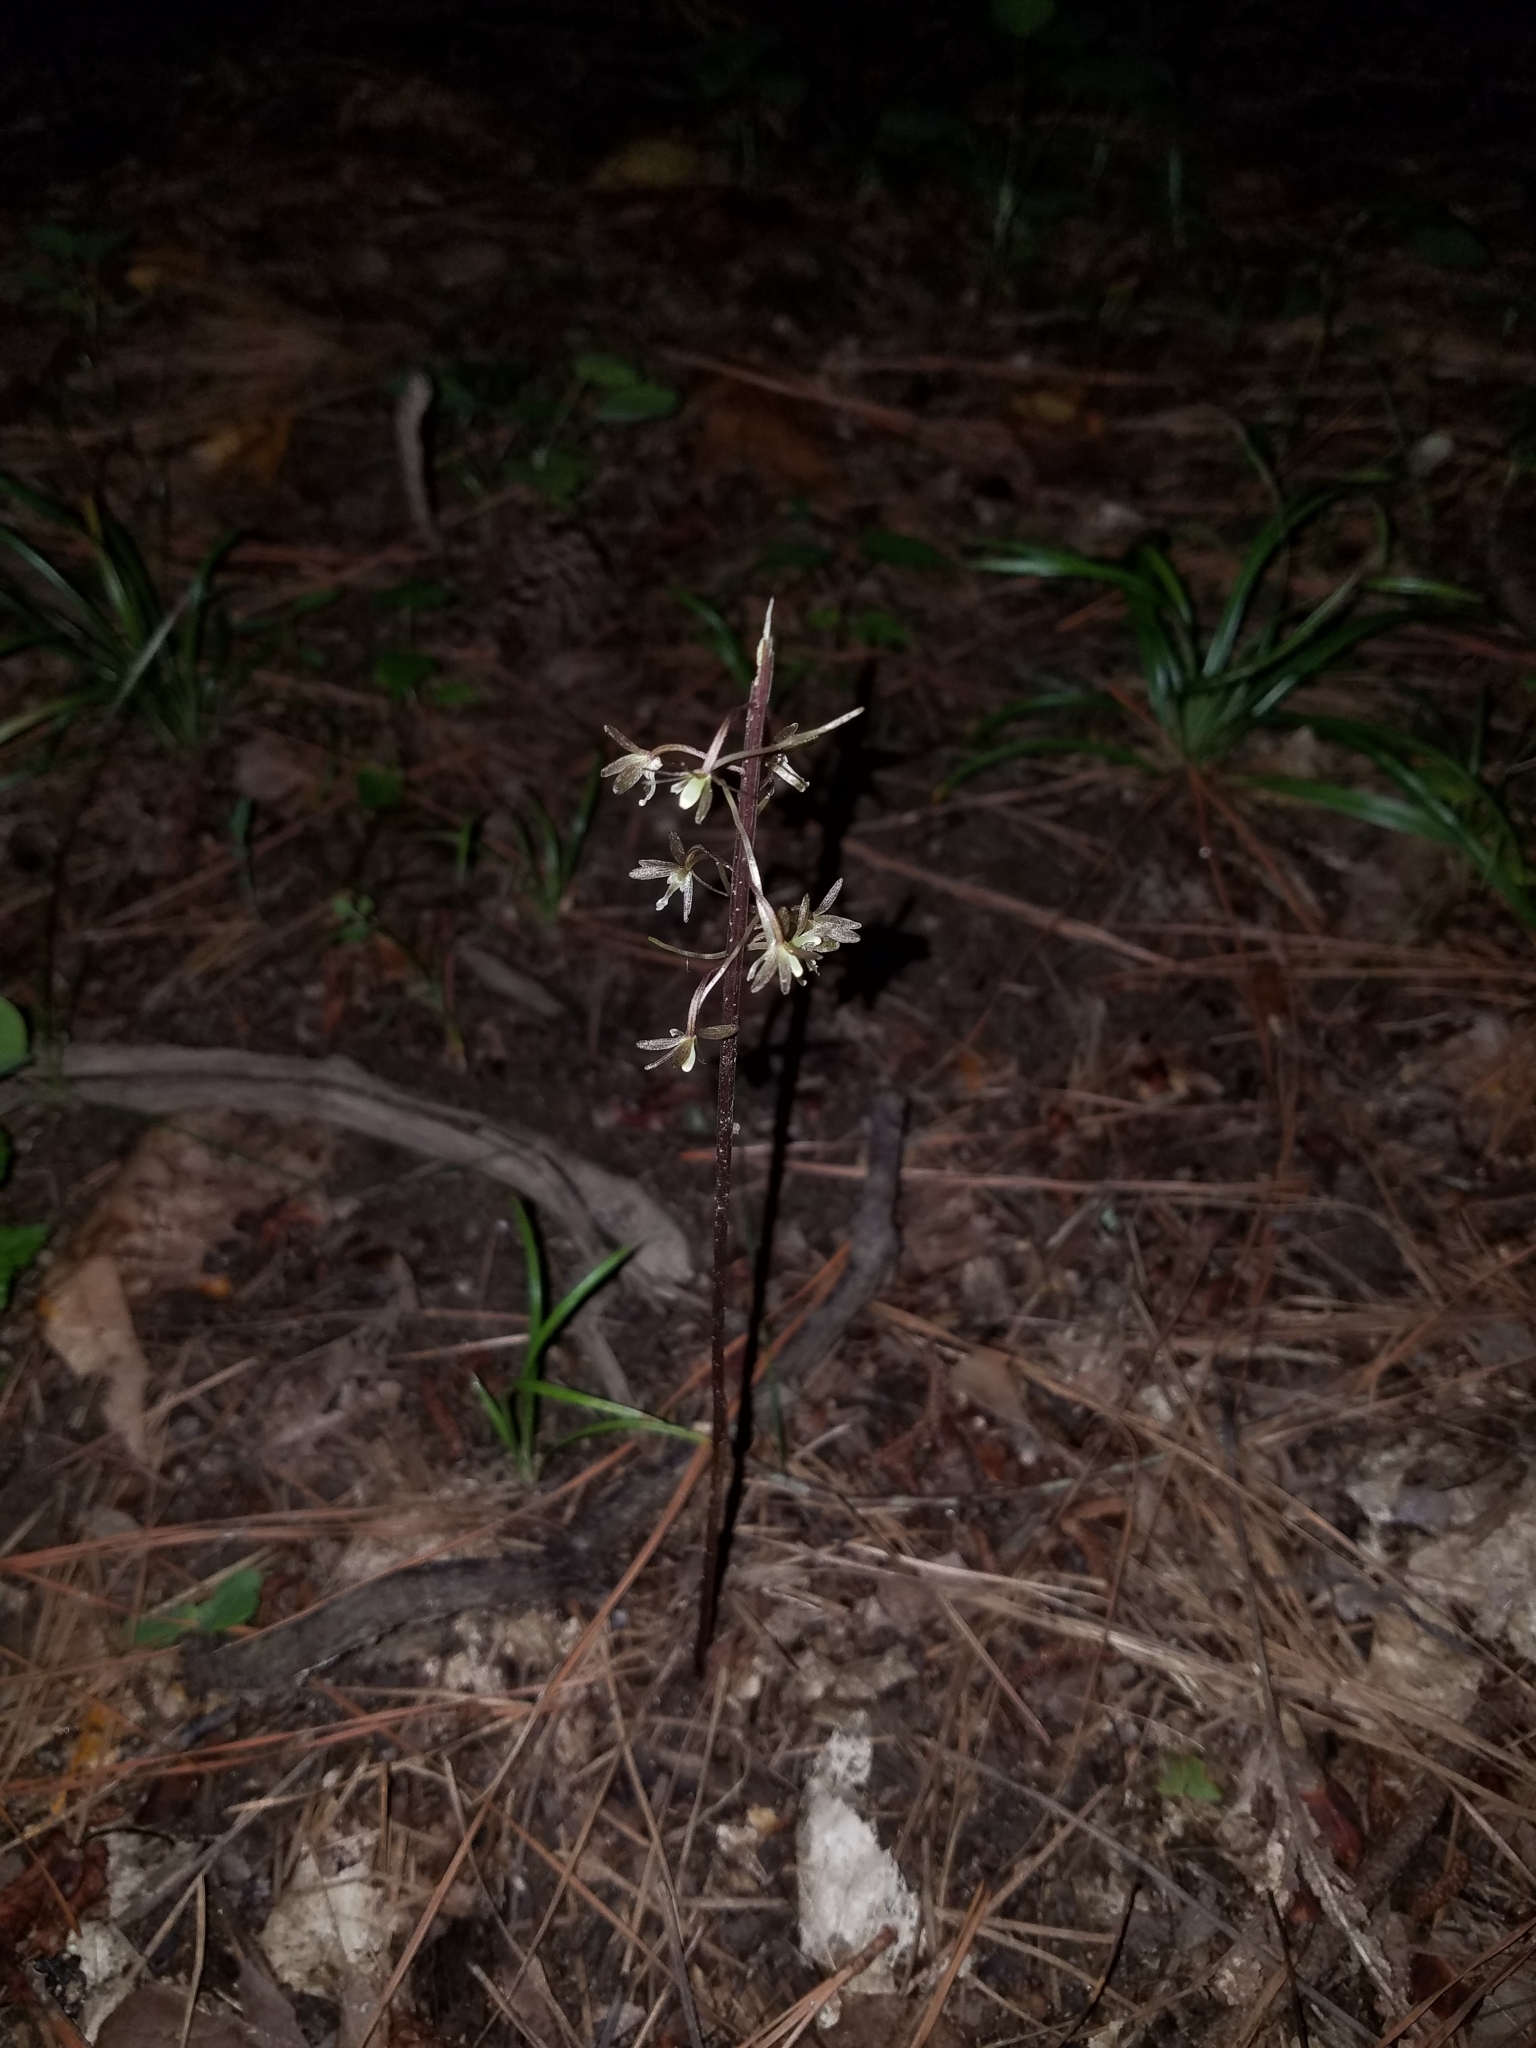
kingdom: Plantae
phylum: Tracheophyta
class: Liliopsida
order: Asparagales
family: Orchidaceae
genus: Tipularia
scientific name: Tipularia discolor
